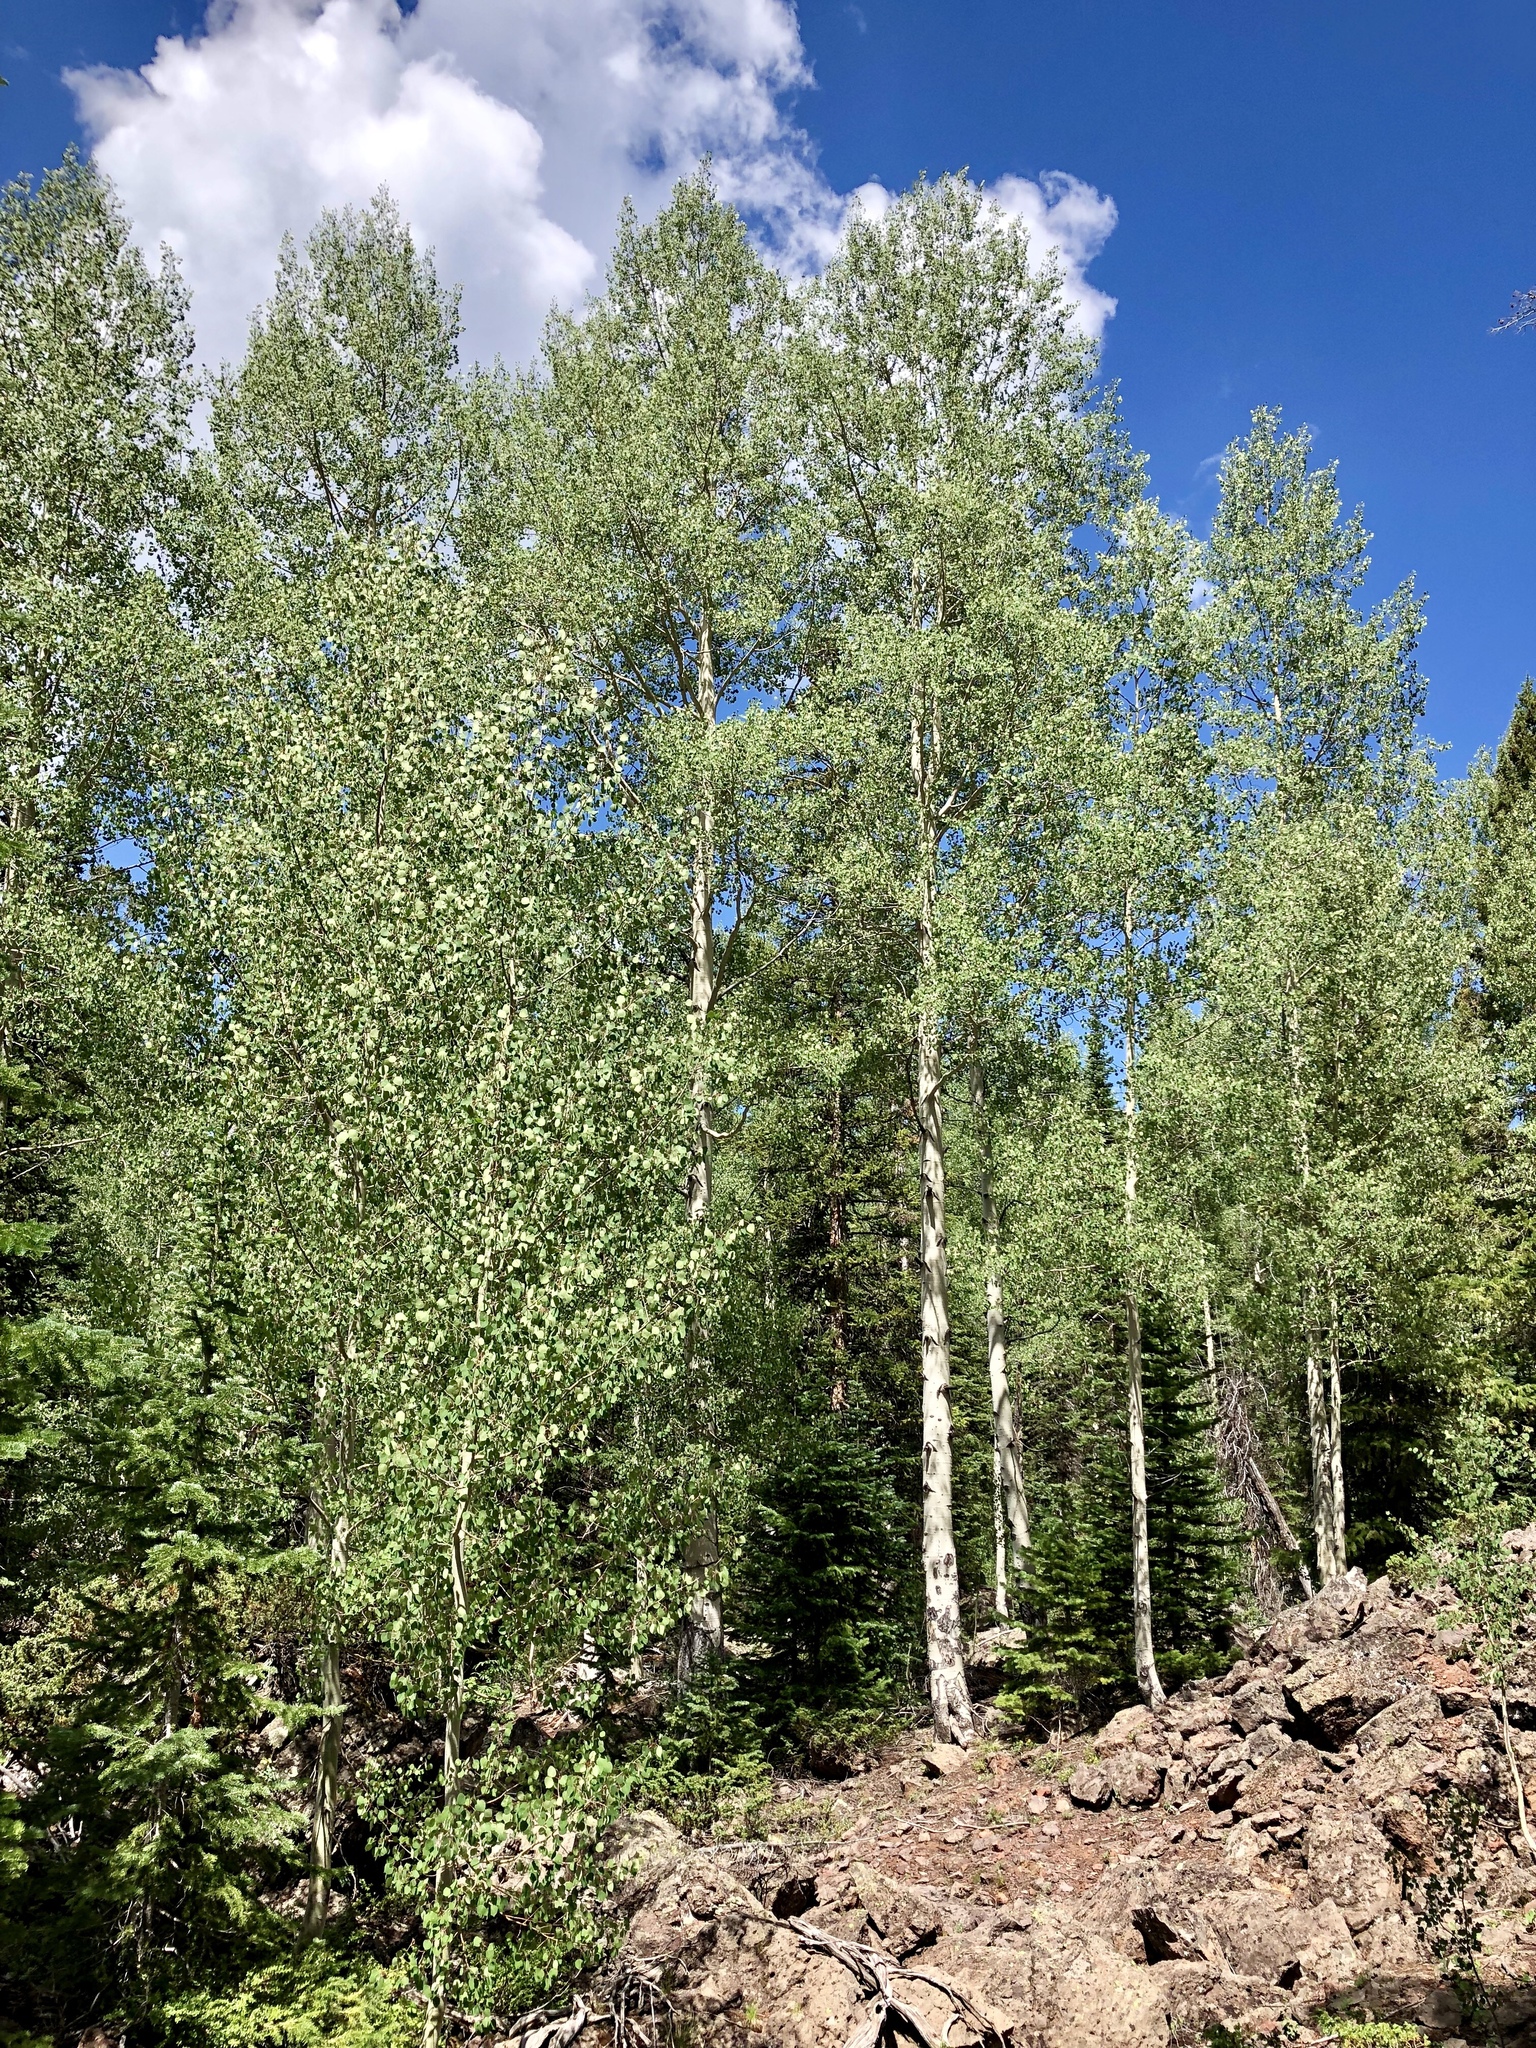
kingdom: Plantae
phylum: Tracheophyta
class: Magnoliopsida
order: Malpighiales
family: Salicaceae
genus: Populus
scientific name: Populus tremuloides
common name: Quaking aspen
